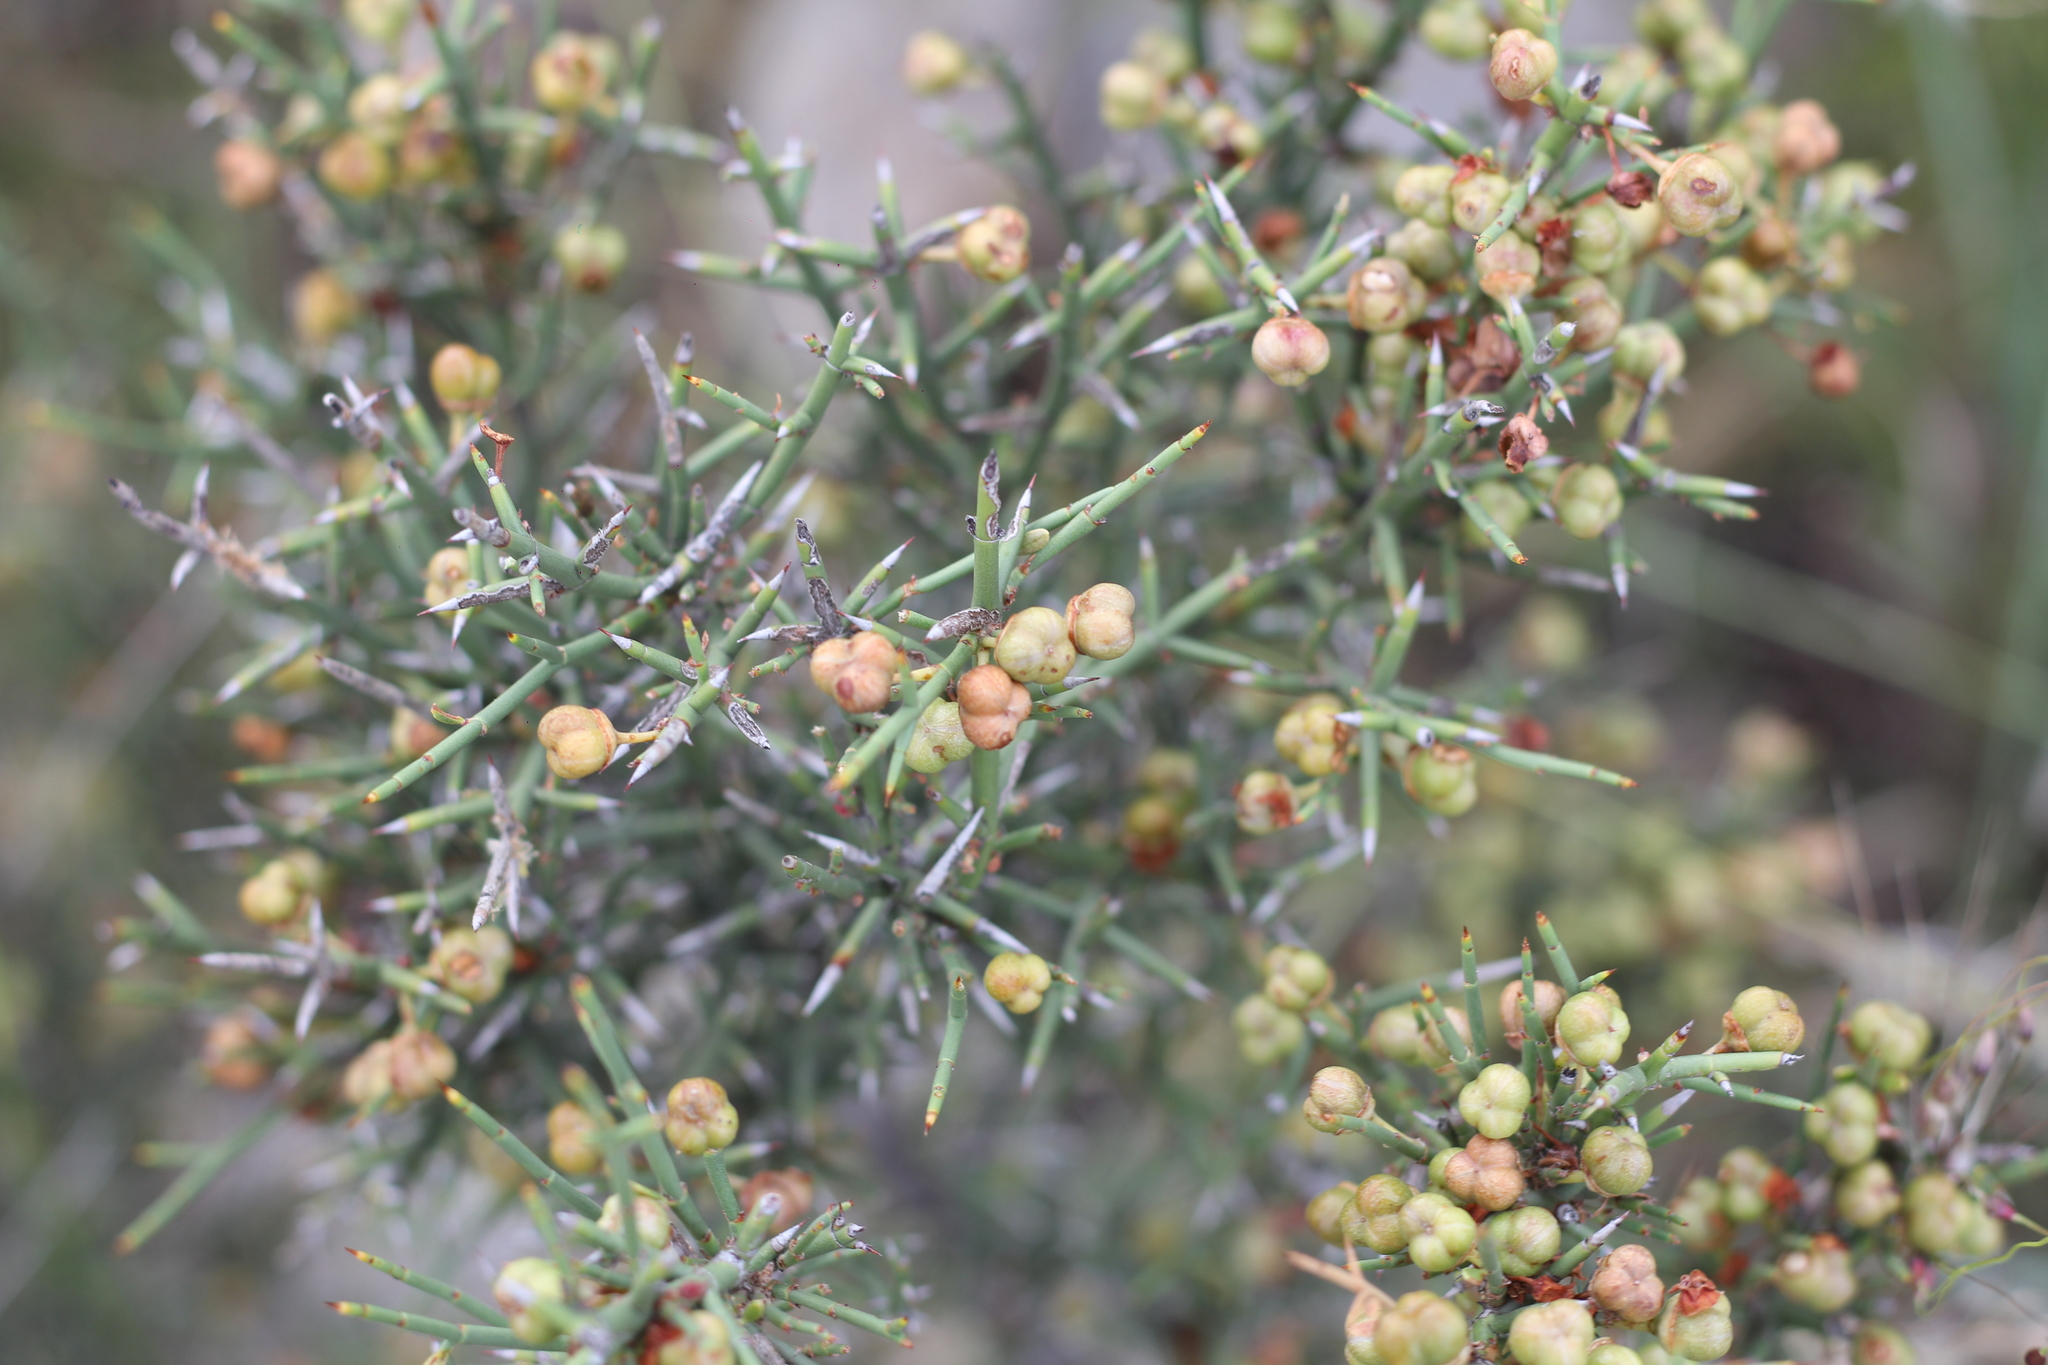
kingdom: Plantae
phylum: Tracheophyta
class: Magnoliopsida
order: Rosales
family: Rhamnaceae
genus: Colletia
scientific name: Colletia spinosissima
